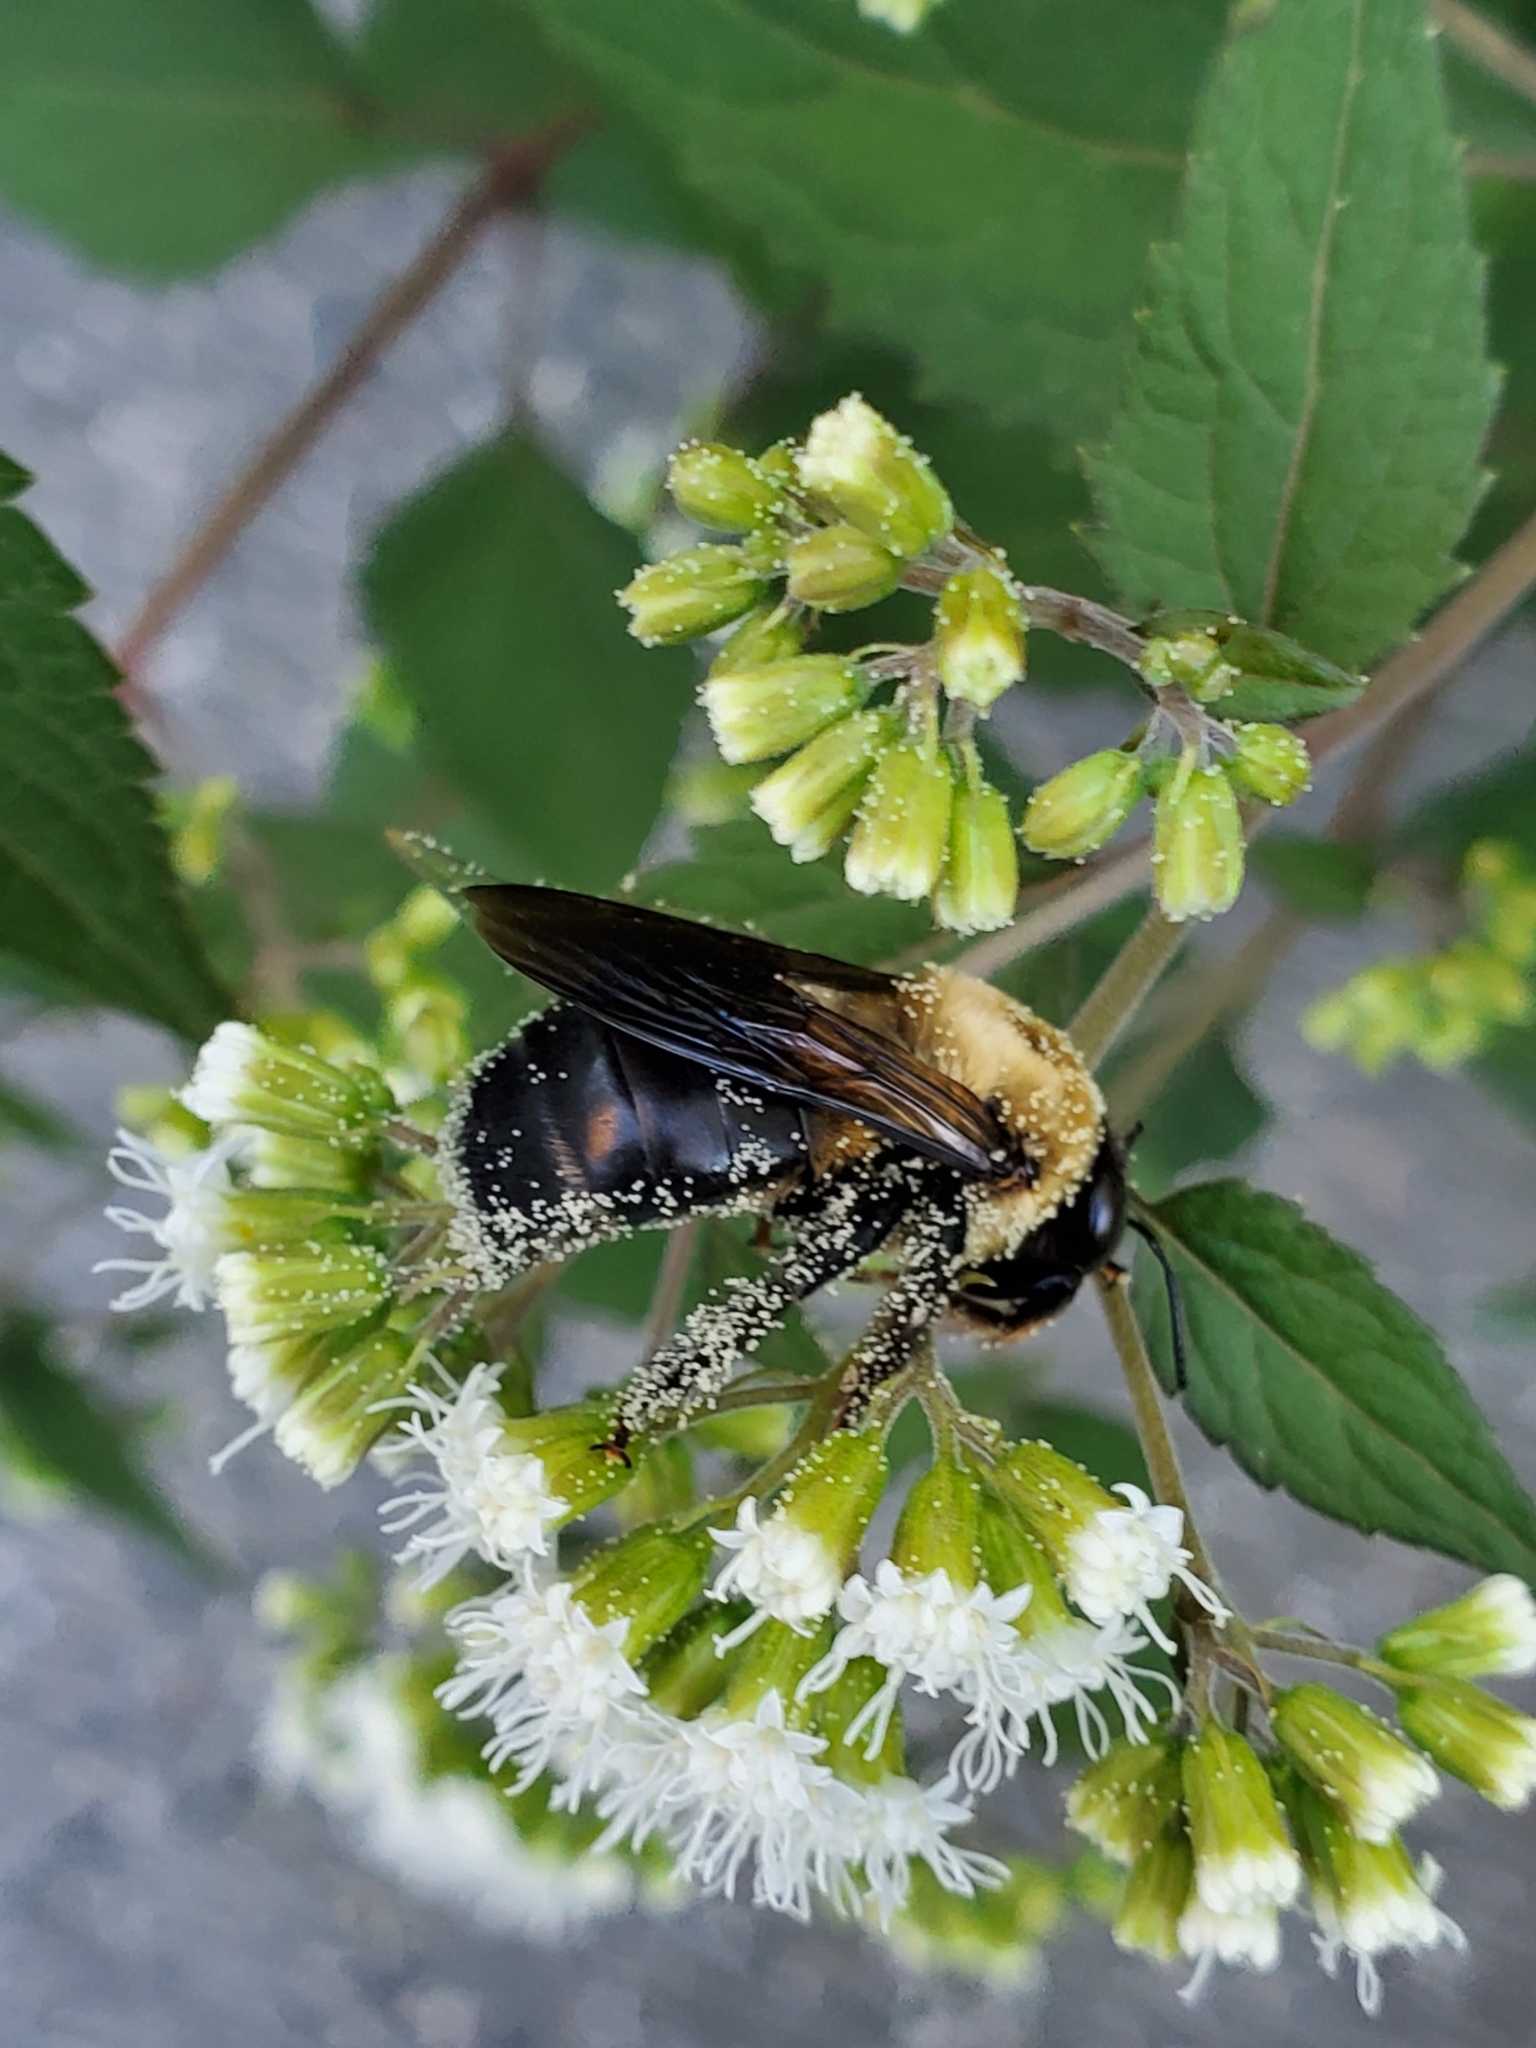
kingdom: Animalia
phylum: Arthropoda
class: Insecta
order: Hymenoptera
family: Apidae
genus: Xylocopa
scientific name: Xylocopa virginica
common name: Carpenter bee
